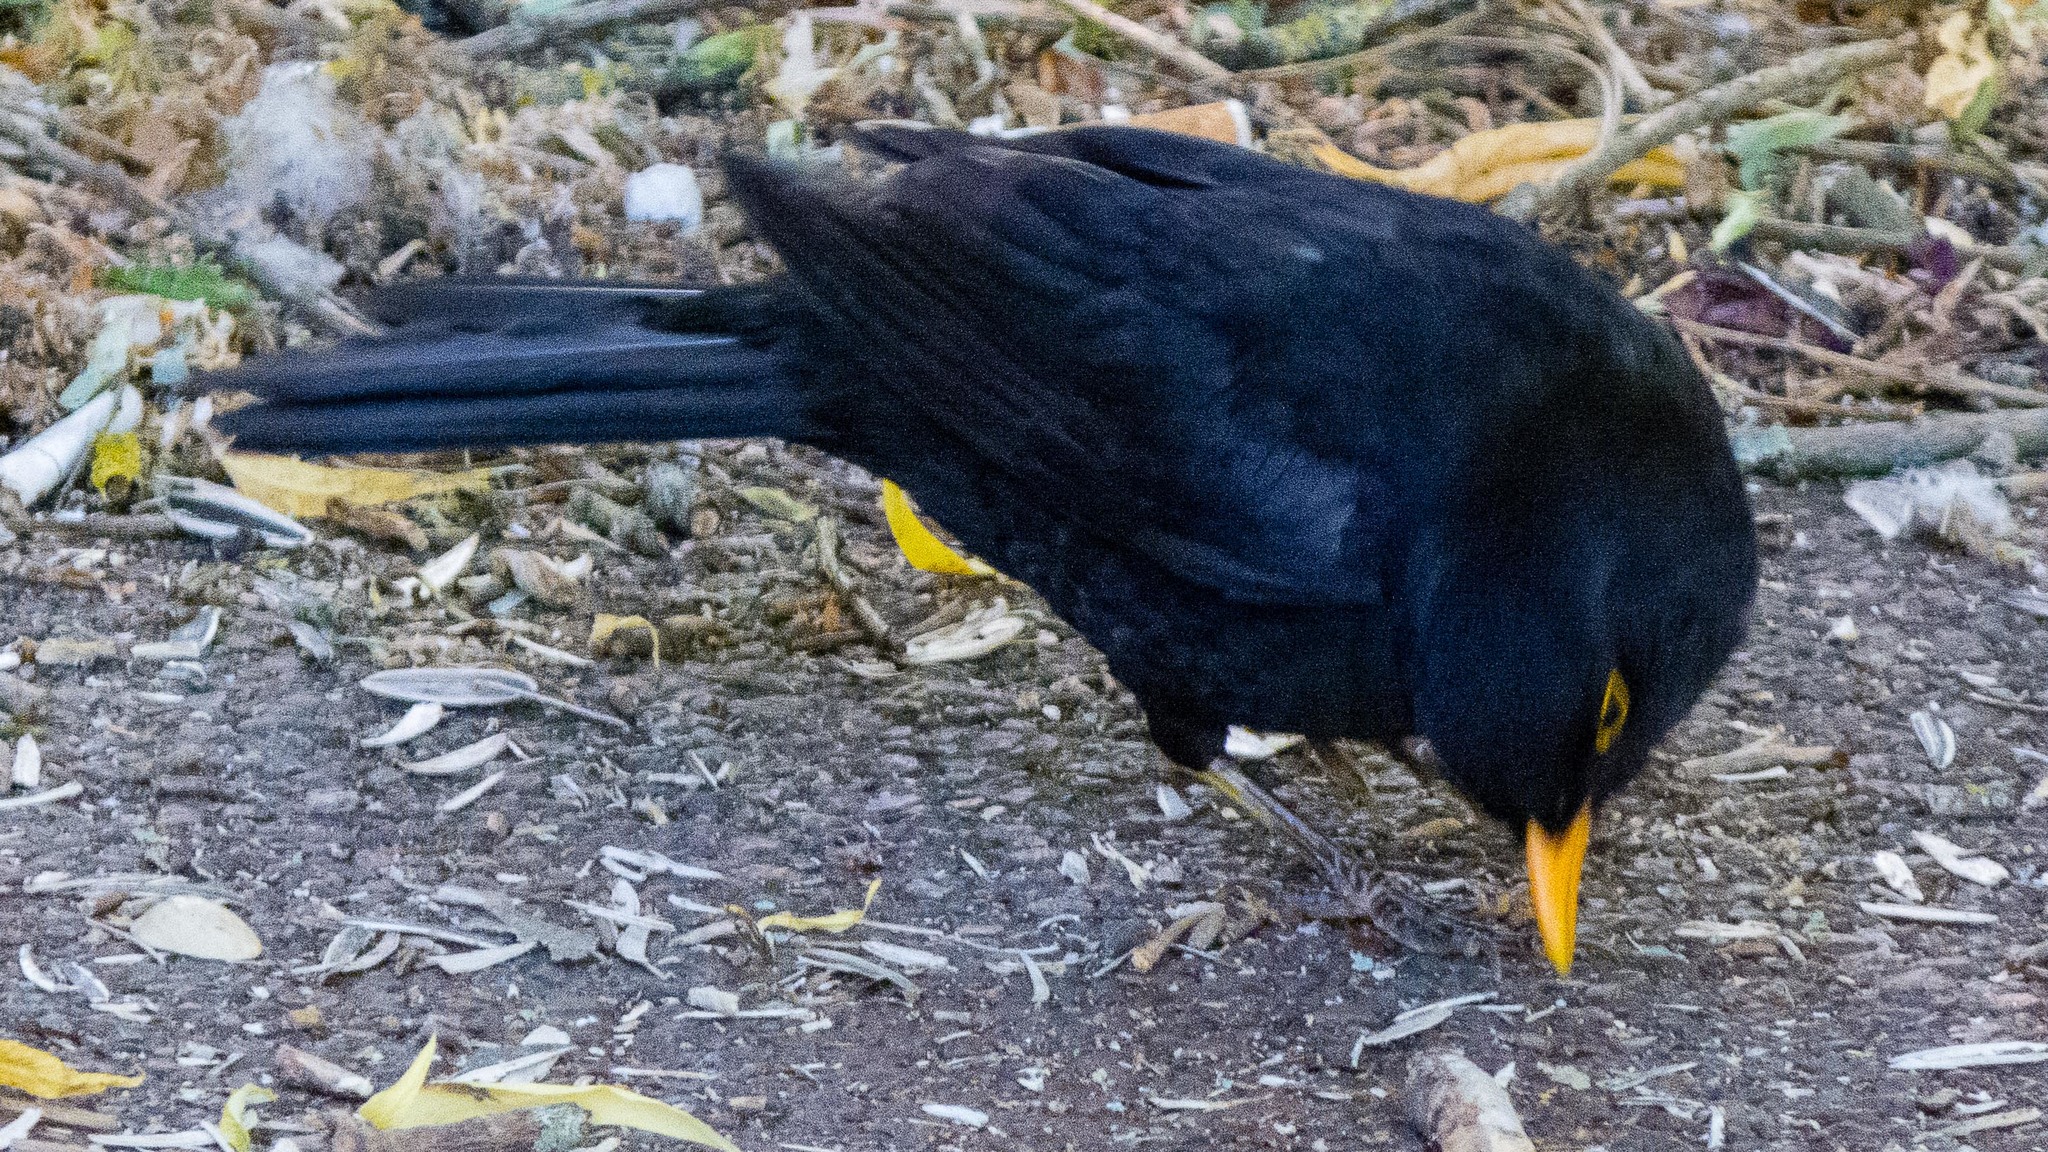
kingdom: Animalia
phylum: Chordata
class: Aves
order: Passeriformes
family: Turdidae
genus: Turdus
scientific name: Turdus merula
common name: Common blackbird
